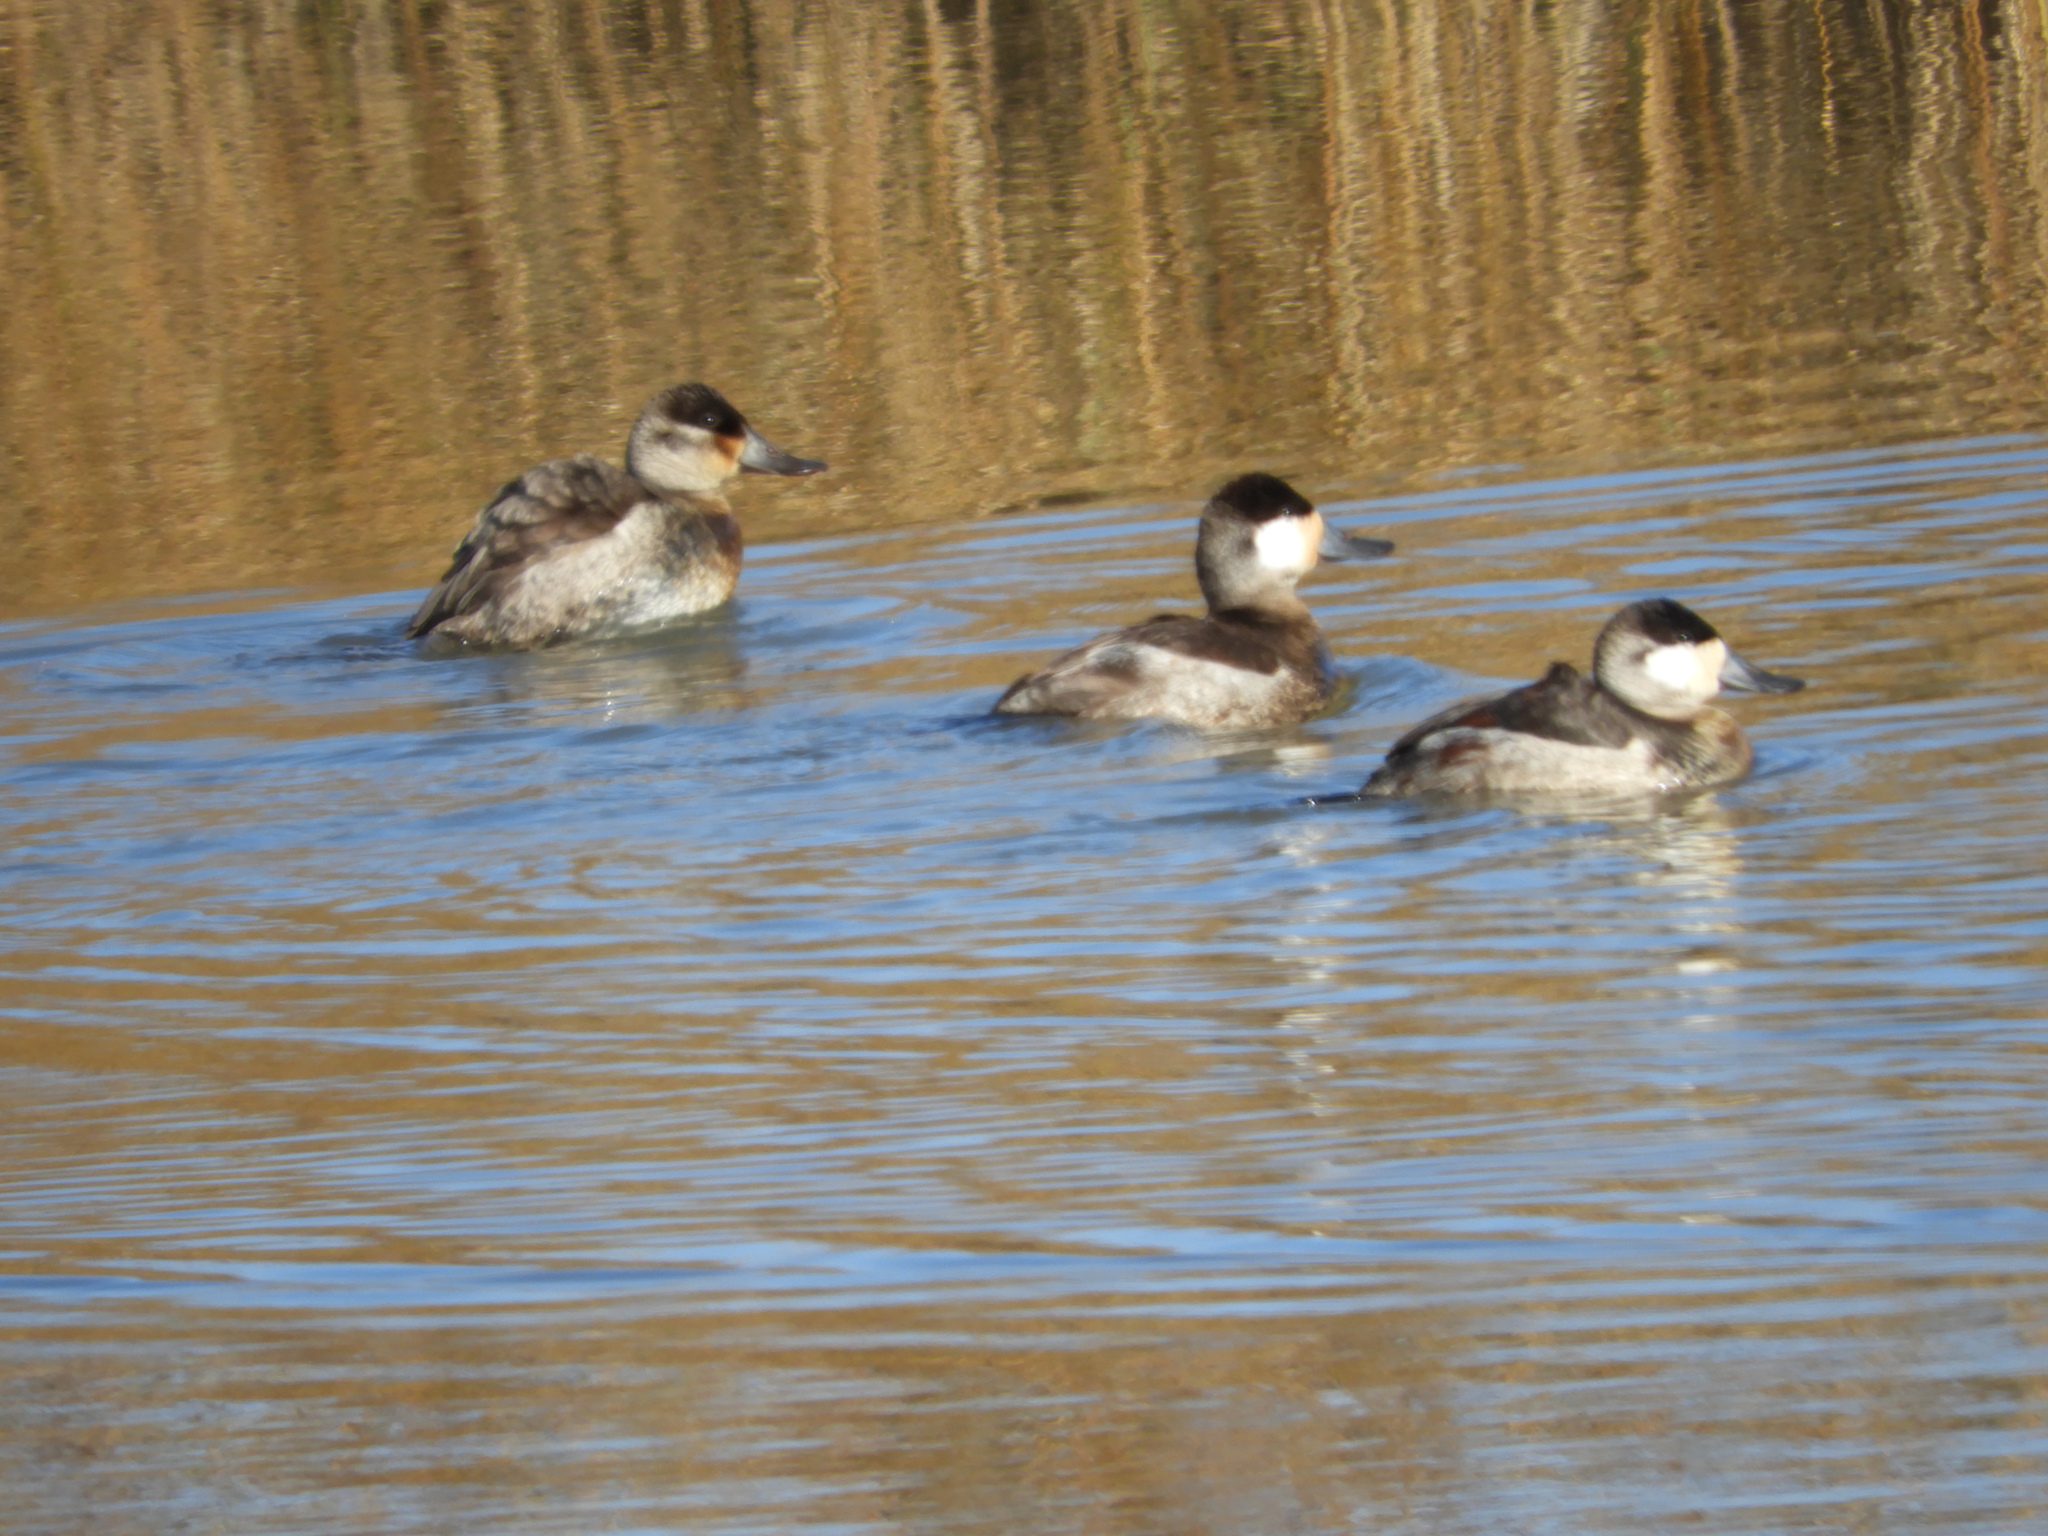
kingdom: Animalia
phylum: Chordata
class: Aves
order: Anseriformes
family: Anatidae
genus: Oxyura
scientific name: Oxyura jamaicensis
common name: Ruddy duck
